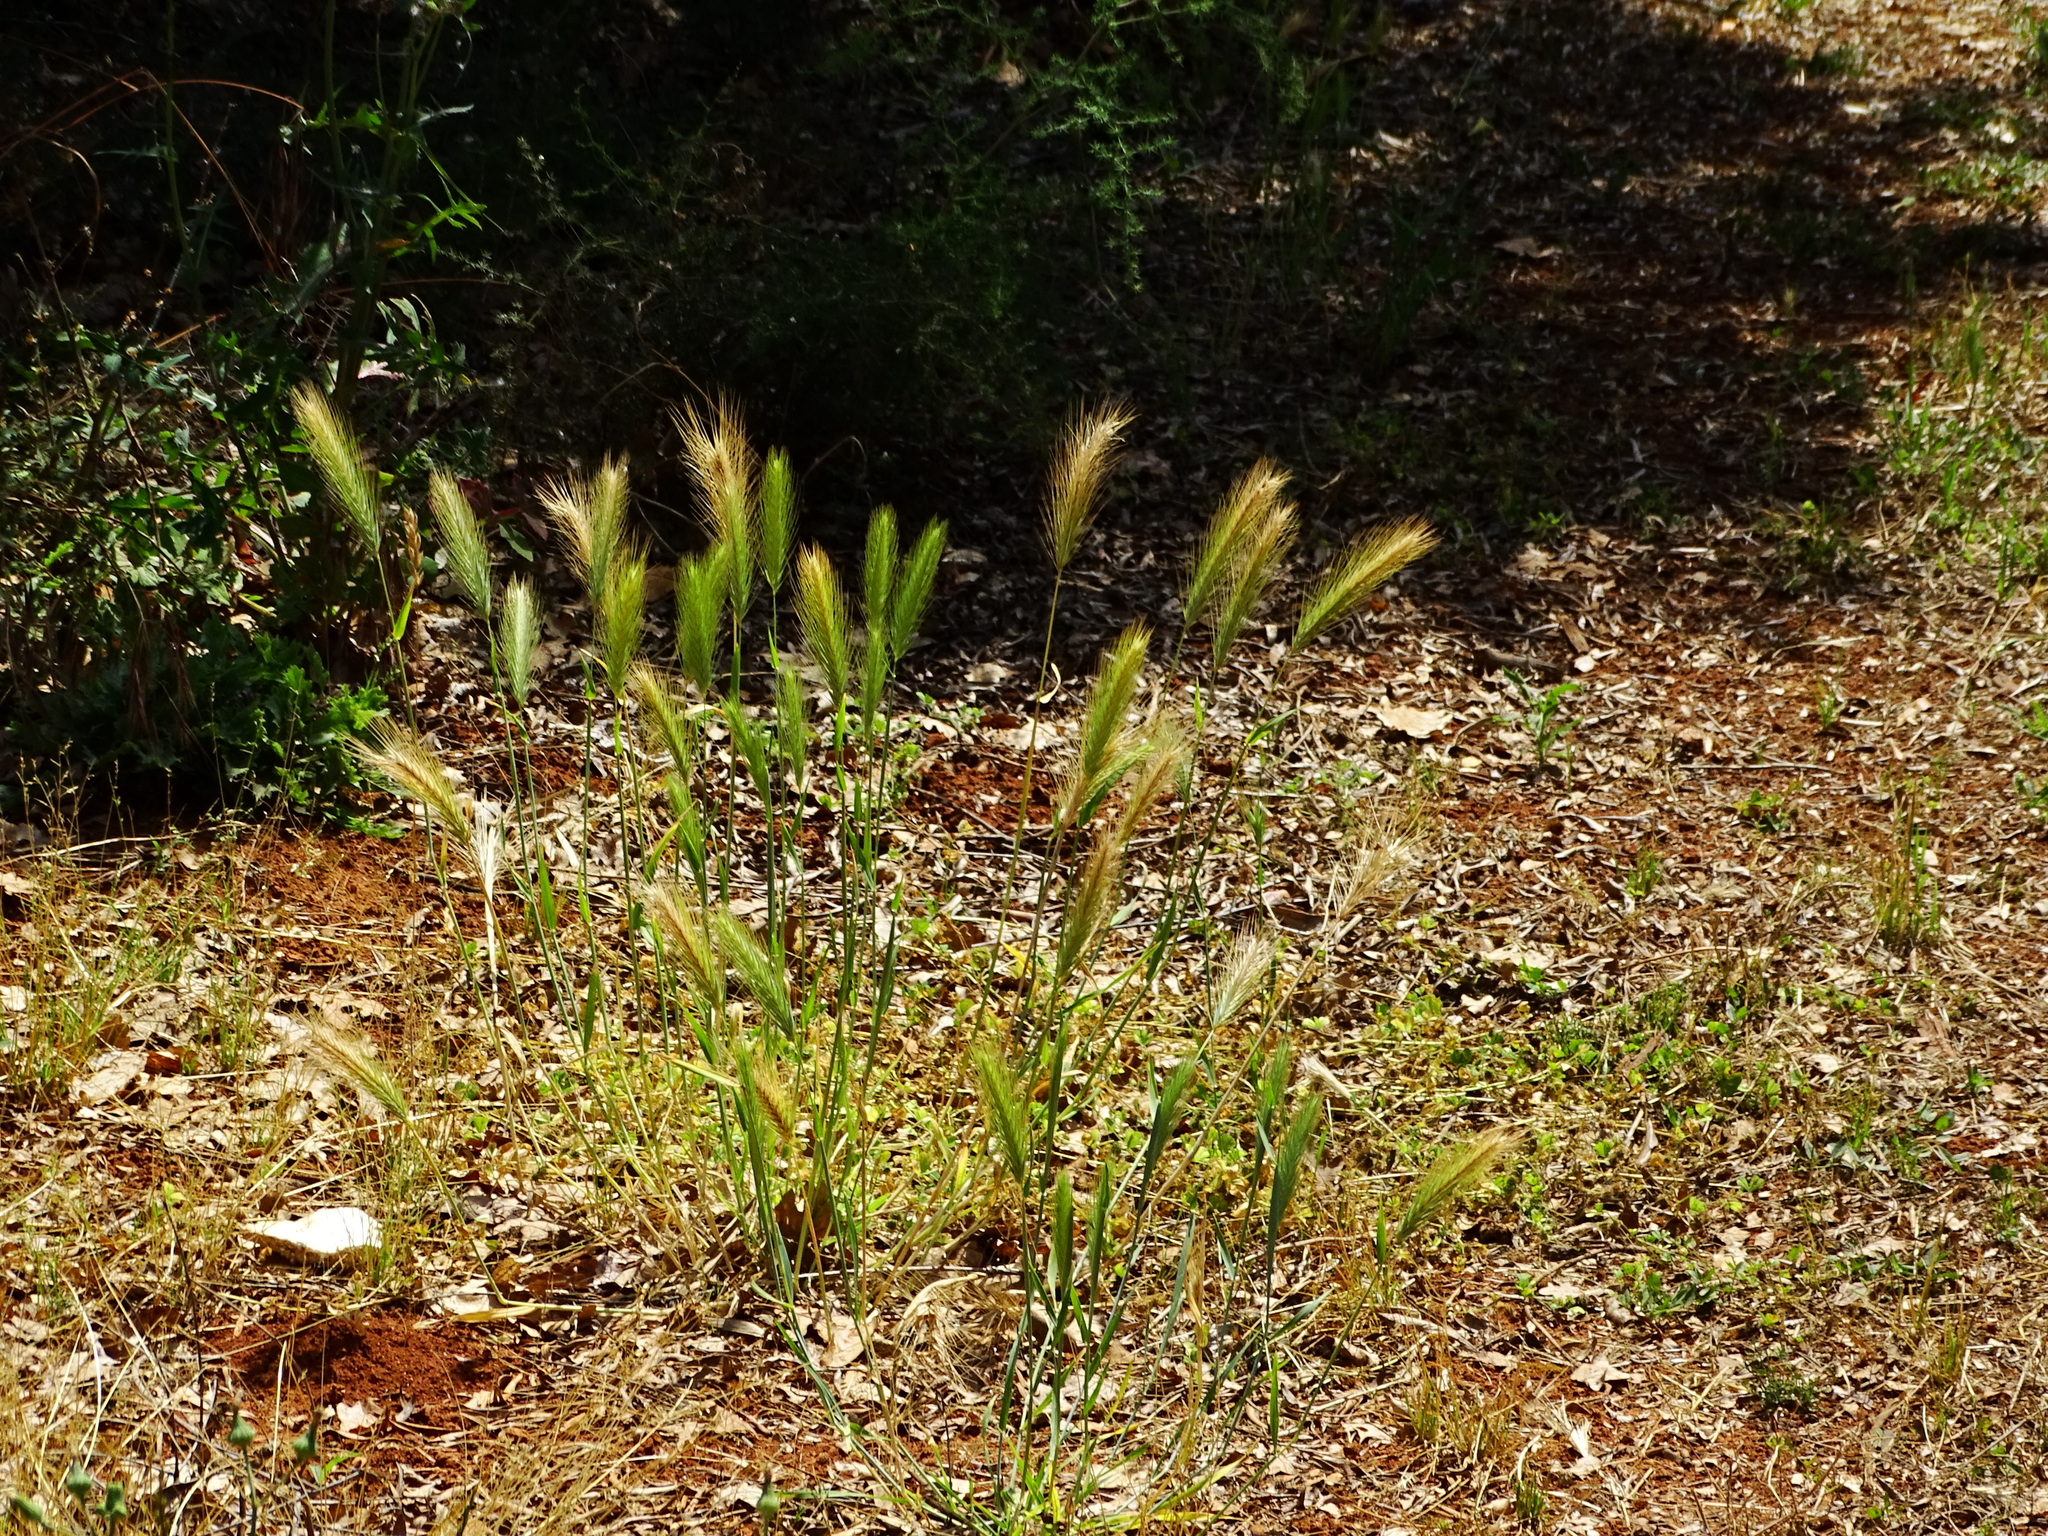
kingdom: Plantae
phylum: Tracheophyta
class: Liliopsida
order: Poales
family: Poaceae
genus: Hordeum
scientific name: Hordeum murinum
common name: Wall barley
